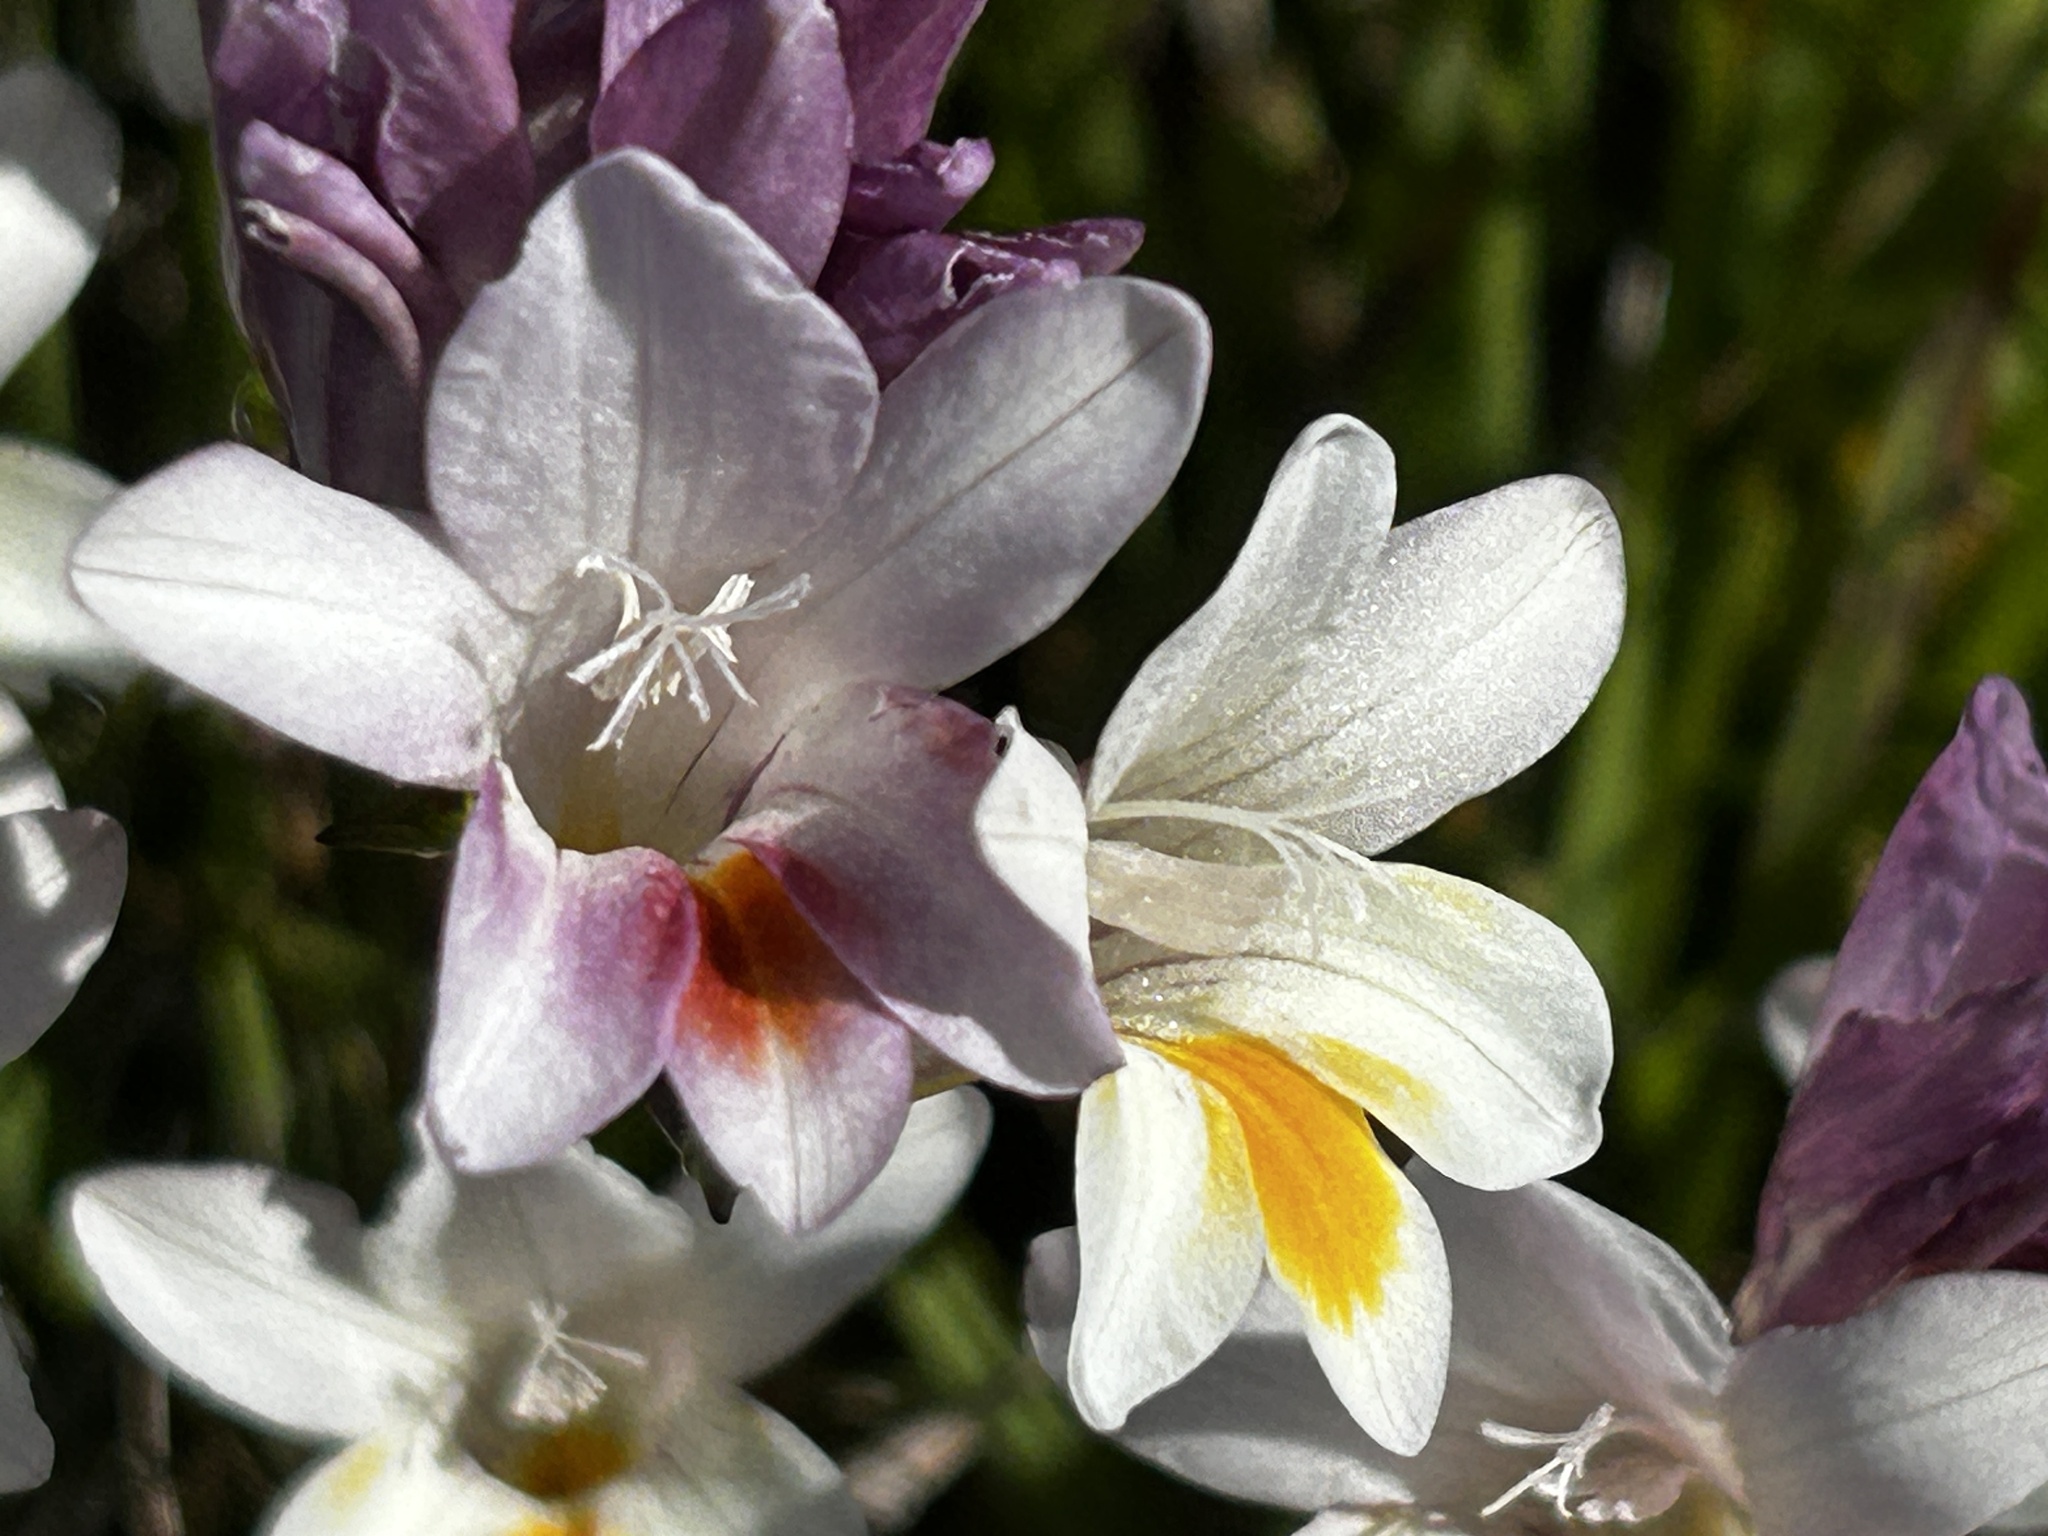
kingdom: Plantae
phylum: Tracheophyta
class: Liliopsida
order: Asparagales
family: Iridaceae
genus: Freesia
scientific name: Freesia leichtlinii
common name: Freesia
